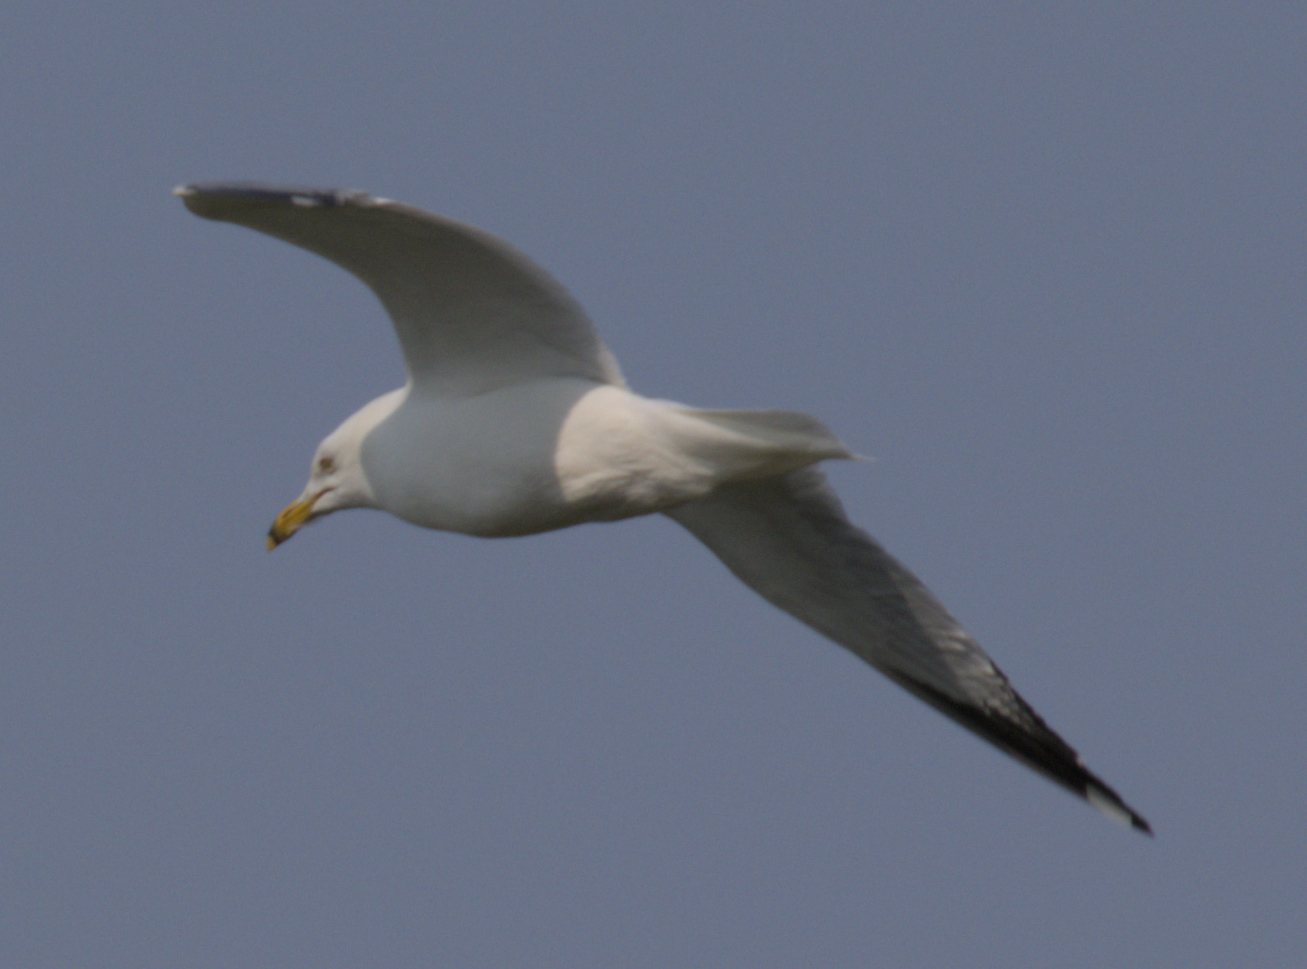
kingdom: Animalia
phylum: Chordata
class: Aves
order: Charadriiformes
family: Laridae
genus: Larus
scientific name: Larus delawarensis
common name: Ring-billed gull
